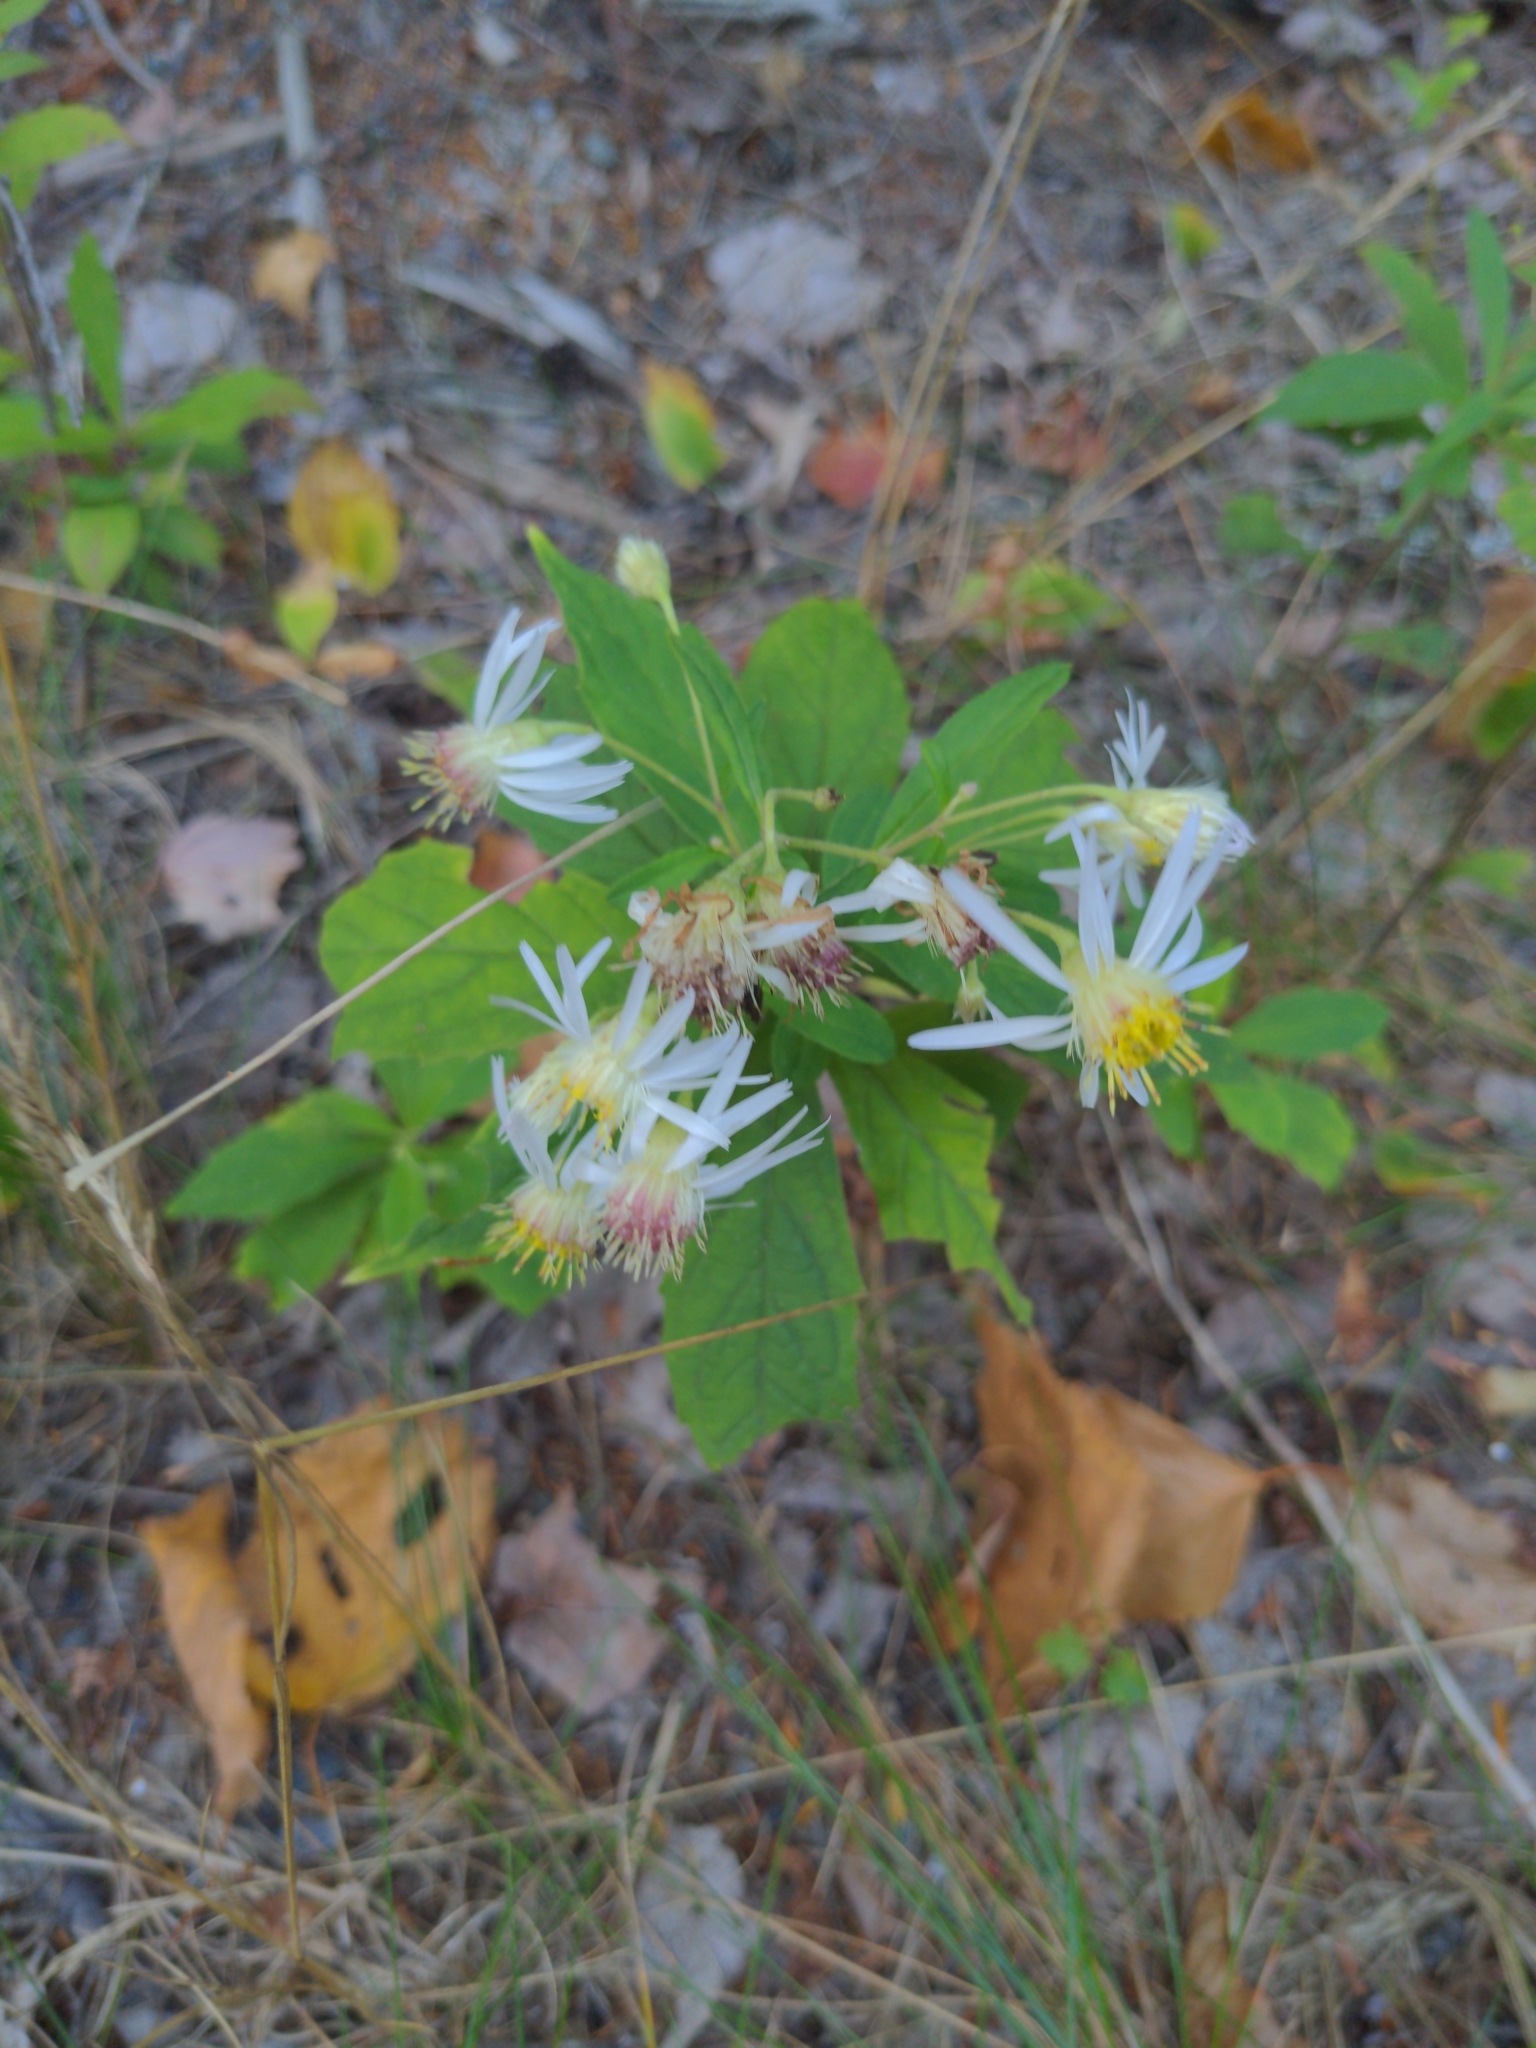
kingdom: Plantae
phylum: Tracheophyta
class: Magnoliopsida
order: Asterales
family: Asteraceae
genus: Oclemena
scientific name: Oclemena acuminata
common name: Mountain aster
